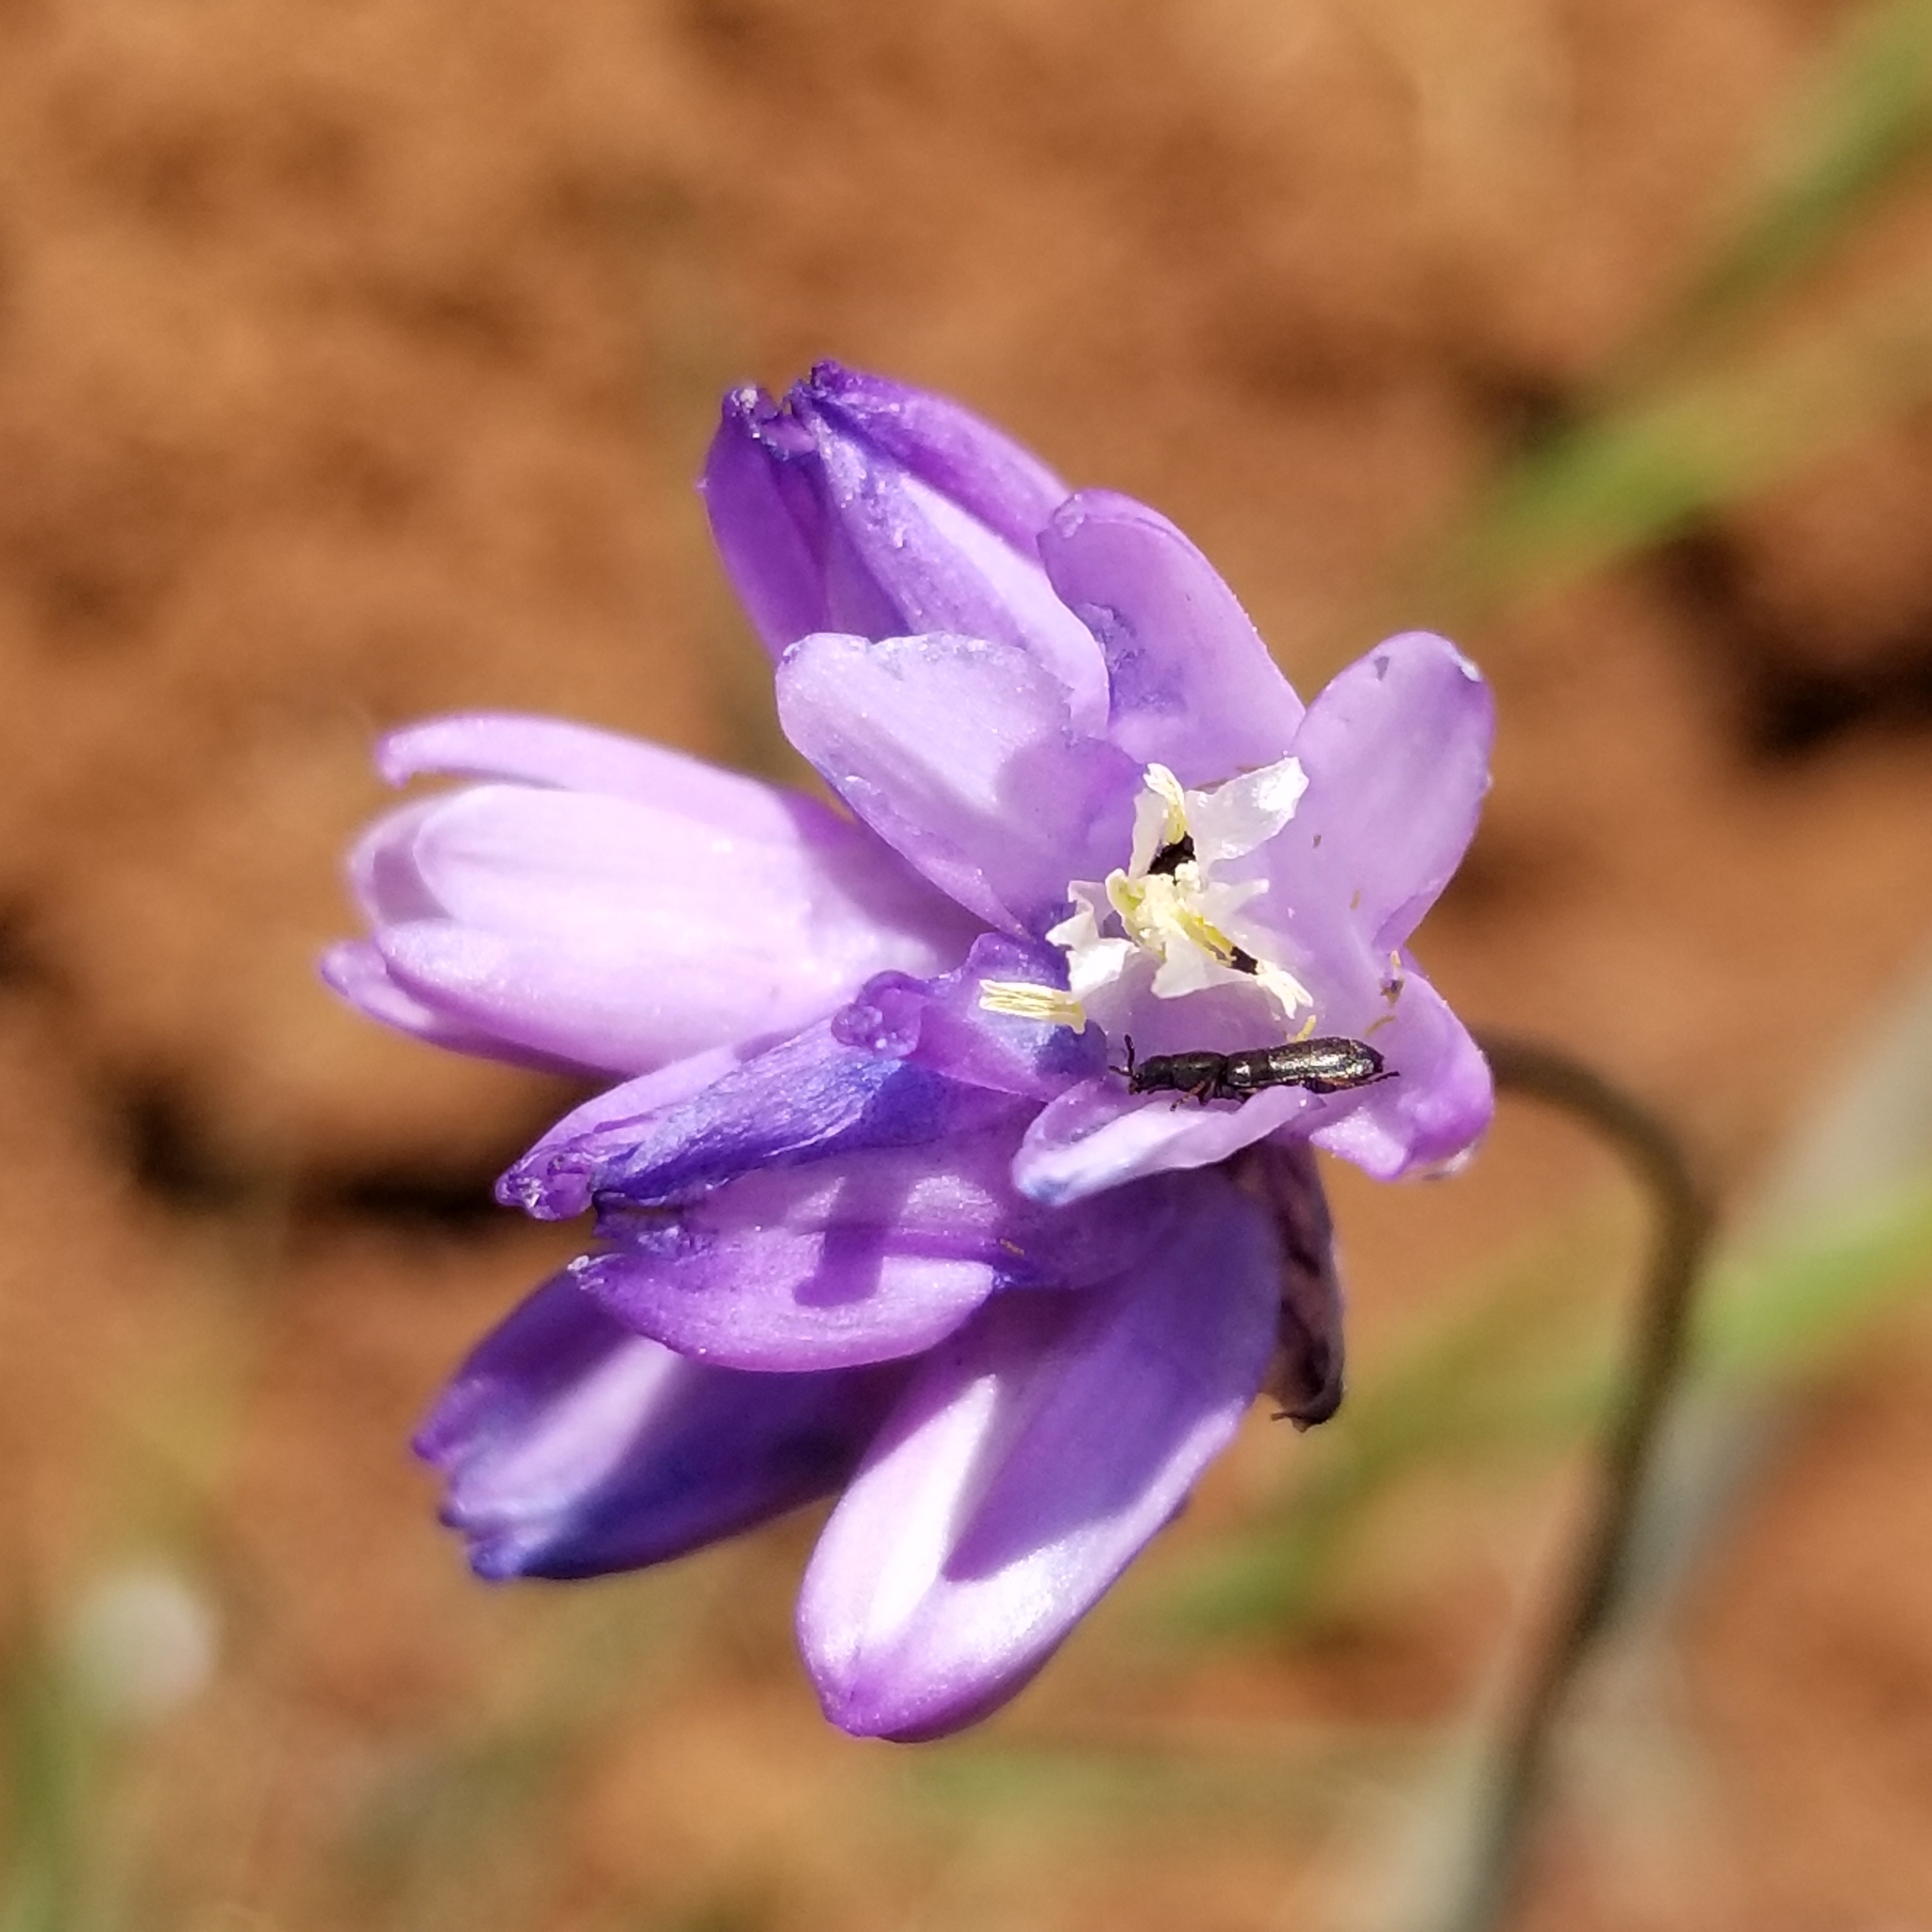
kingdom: Plantae
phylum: Tracheophyta
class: Liliopsida
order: Asparagales
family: Asparagaceae
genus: Dipterostemon
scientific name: Dipterostemon capitatus
